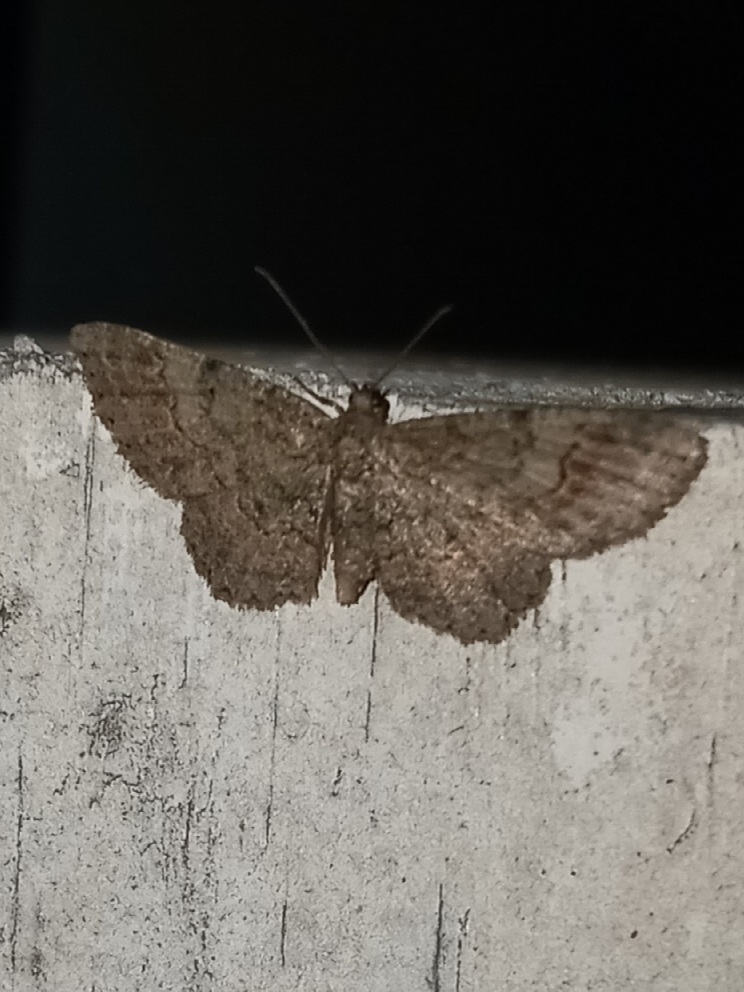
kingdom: Animalia
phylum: Arthropoda
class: Insecta
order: Lepidoptera
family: Geometridae
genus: Glenoides
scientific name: Glenoides texanaria
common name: Texas gray
